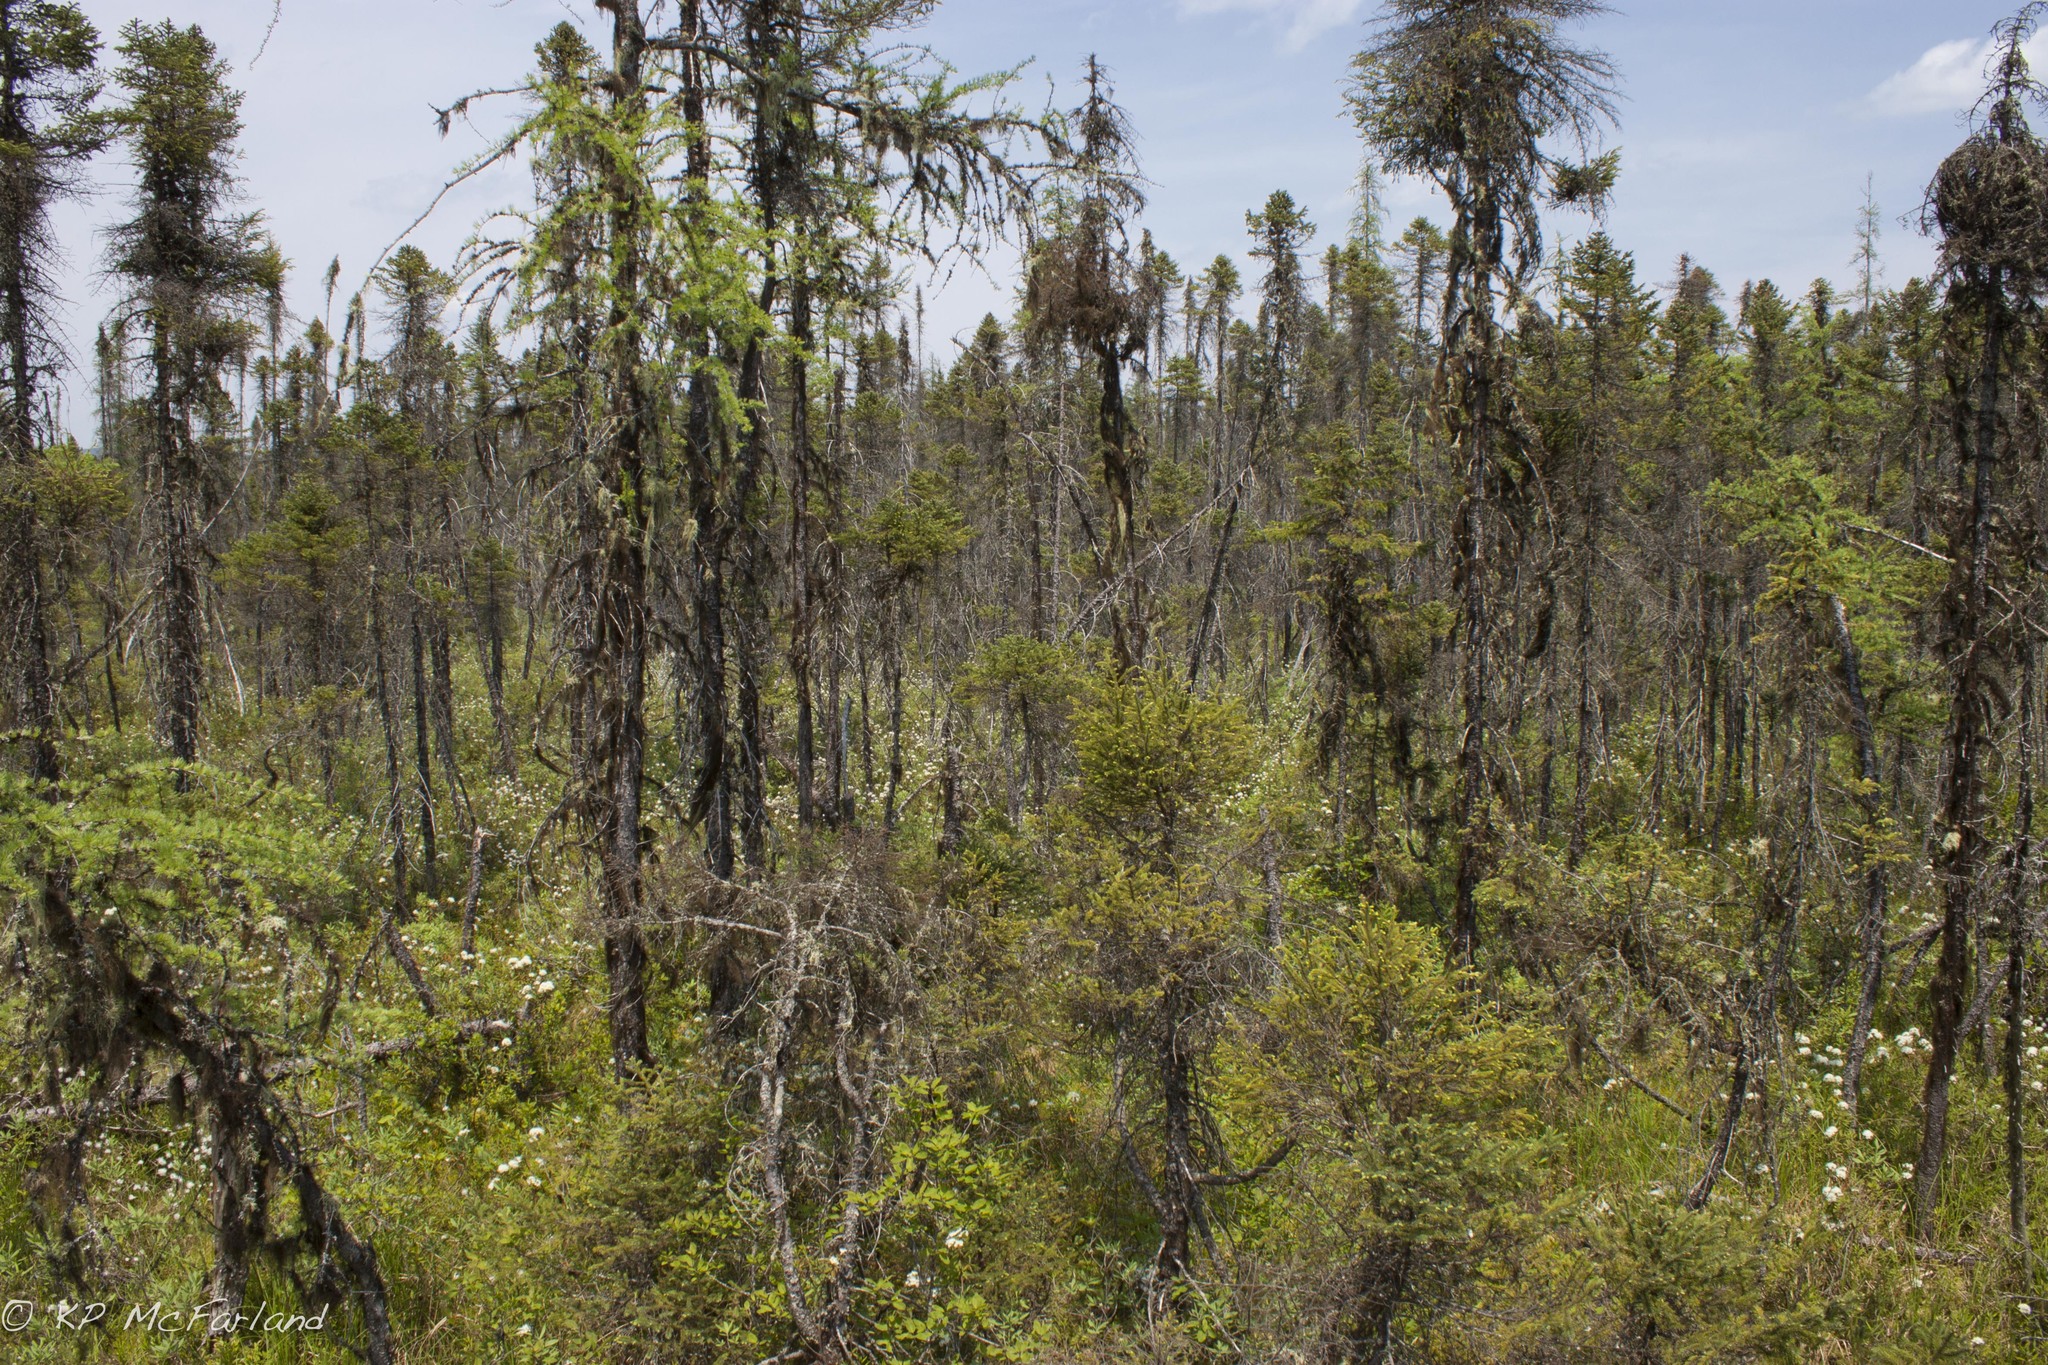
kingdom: Plantae
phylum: Tracheophyta
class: Pinopsida
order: Pinales
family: Pinaceae
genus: Picea
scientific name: Picea mariana
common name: Black spruce
